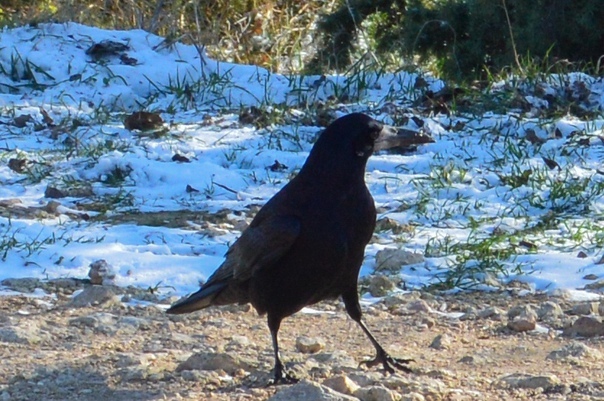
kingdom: Animalia
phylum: Chordata
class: Aves
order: Passeriformes
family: Corvidae
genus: Corvus
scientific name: Corvus frugilegus
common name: Rook
